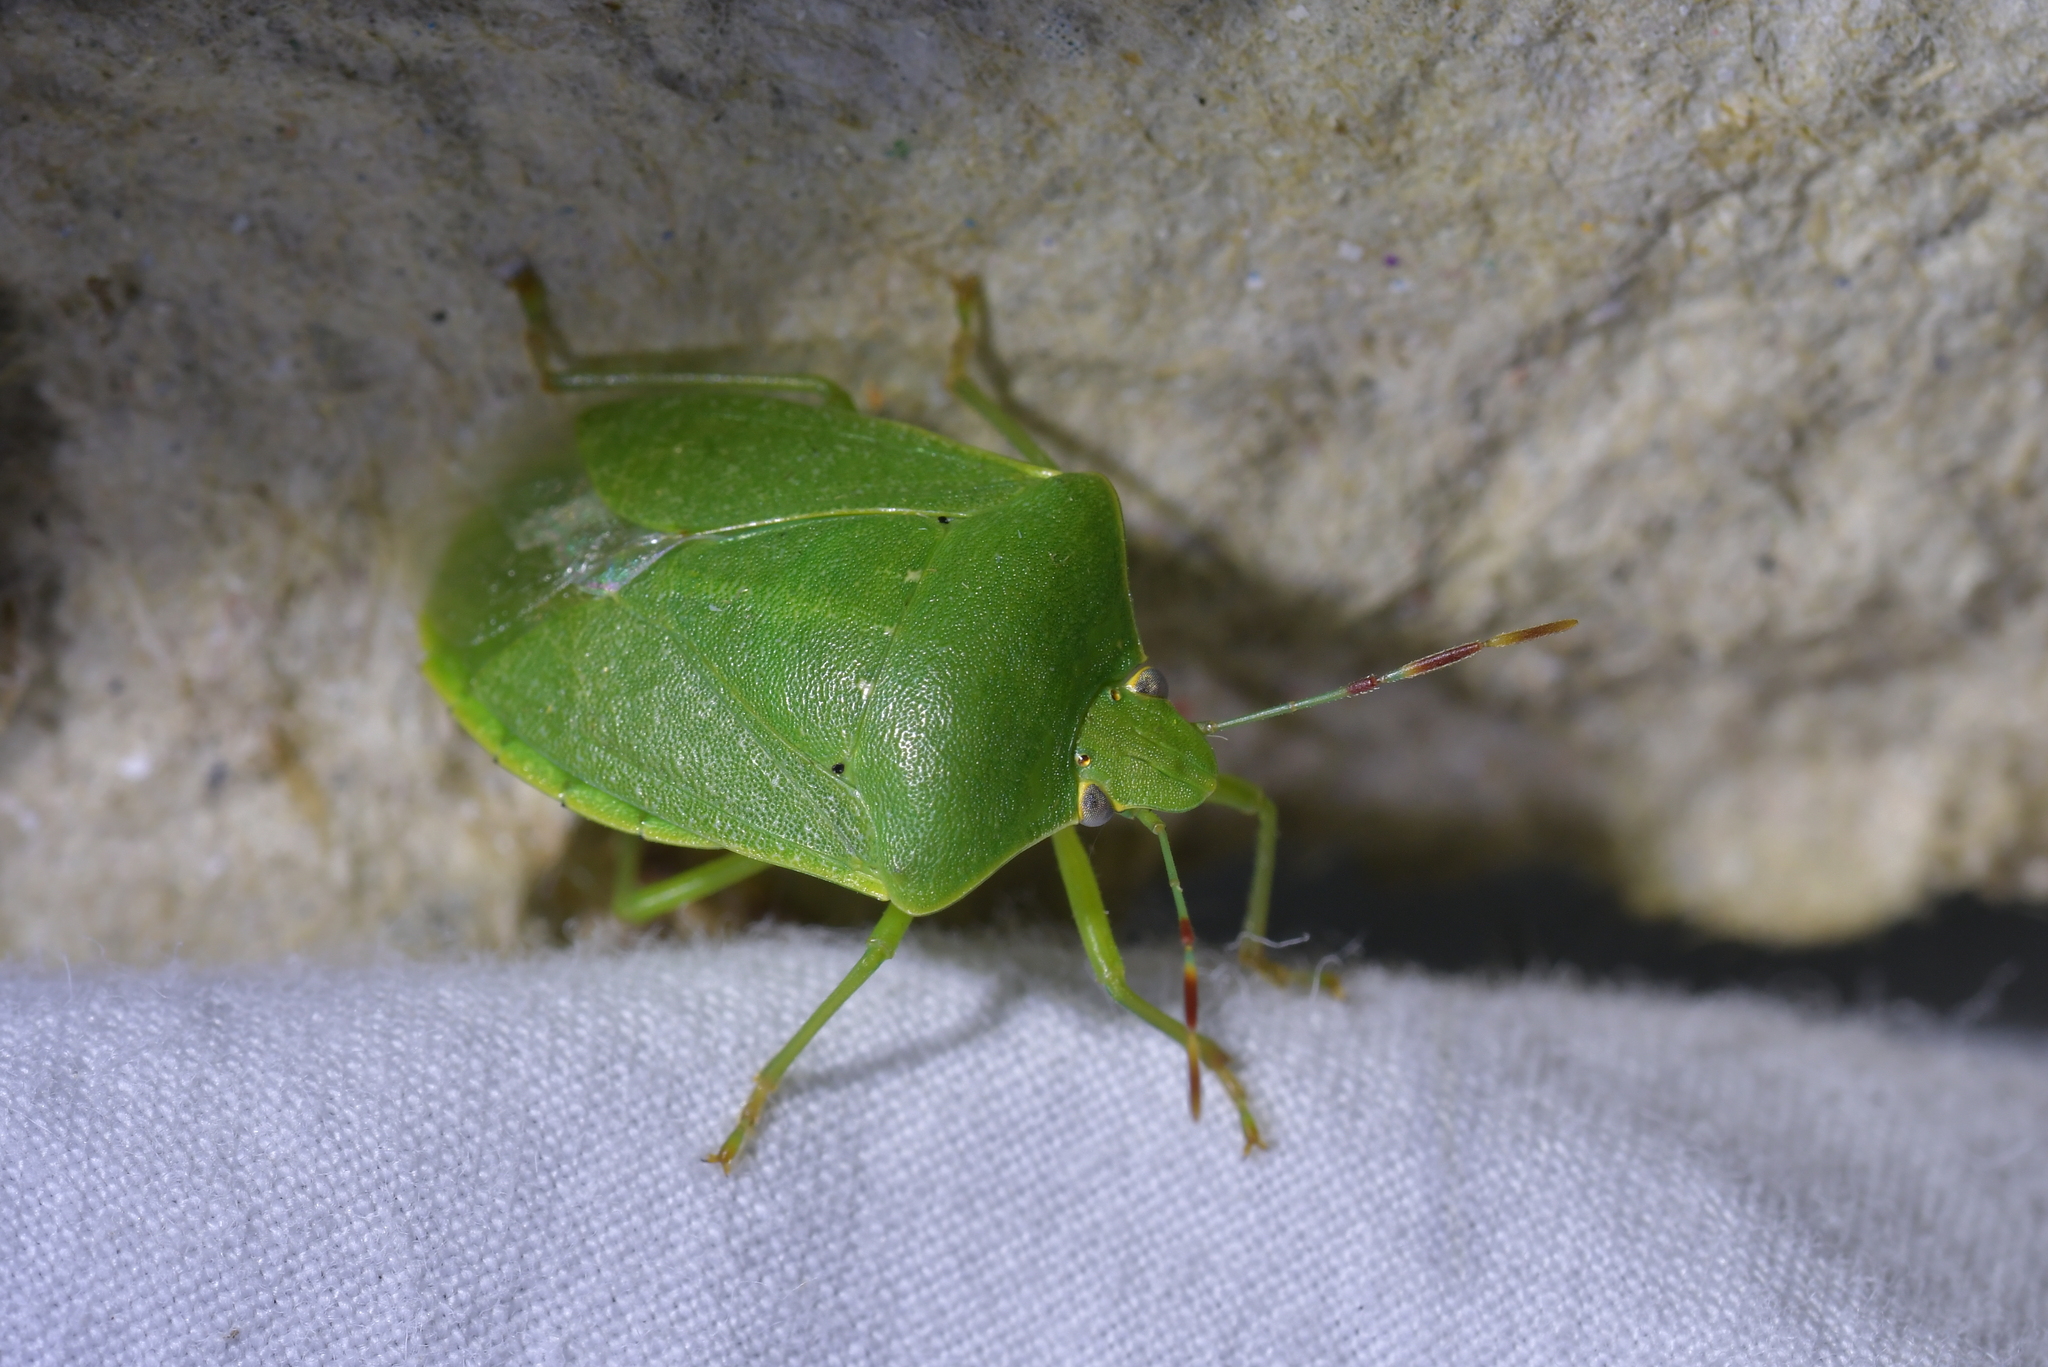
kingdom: Animalia
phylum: Arthropoda
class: Insecta
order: Hemiptera
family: Pentatomidae
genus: Nezara
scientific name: Nezara viridula
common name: Southern green stink bug
